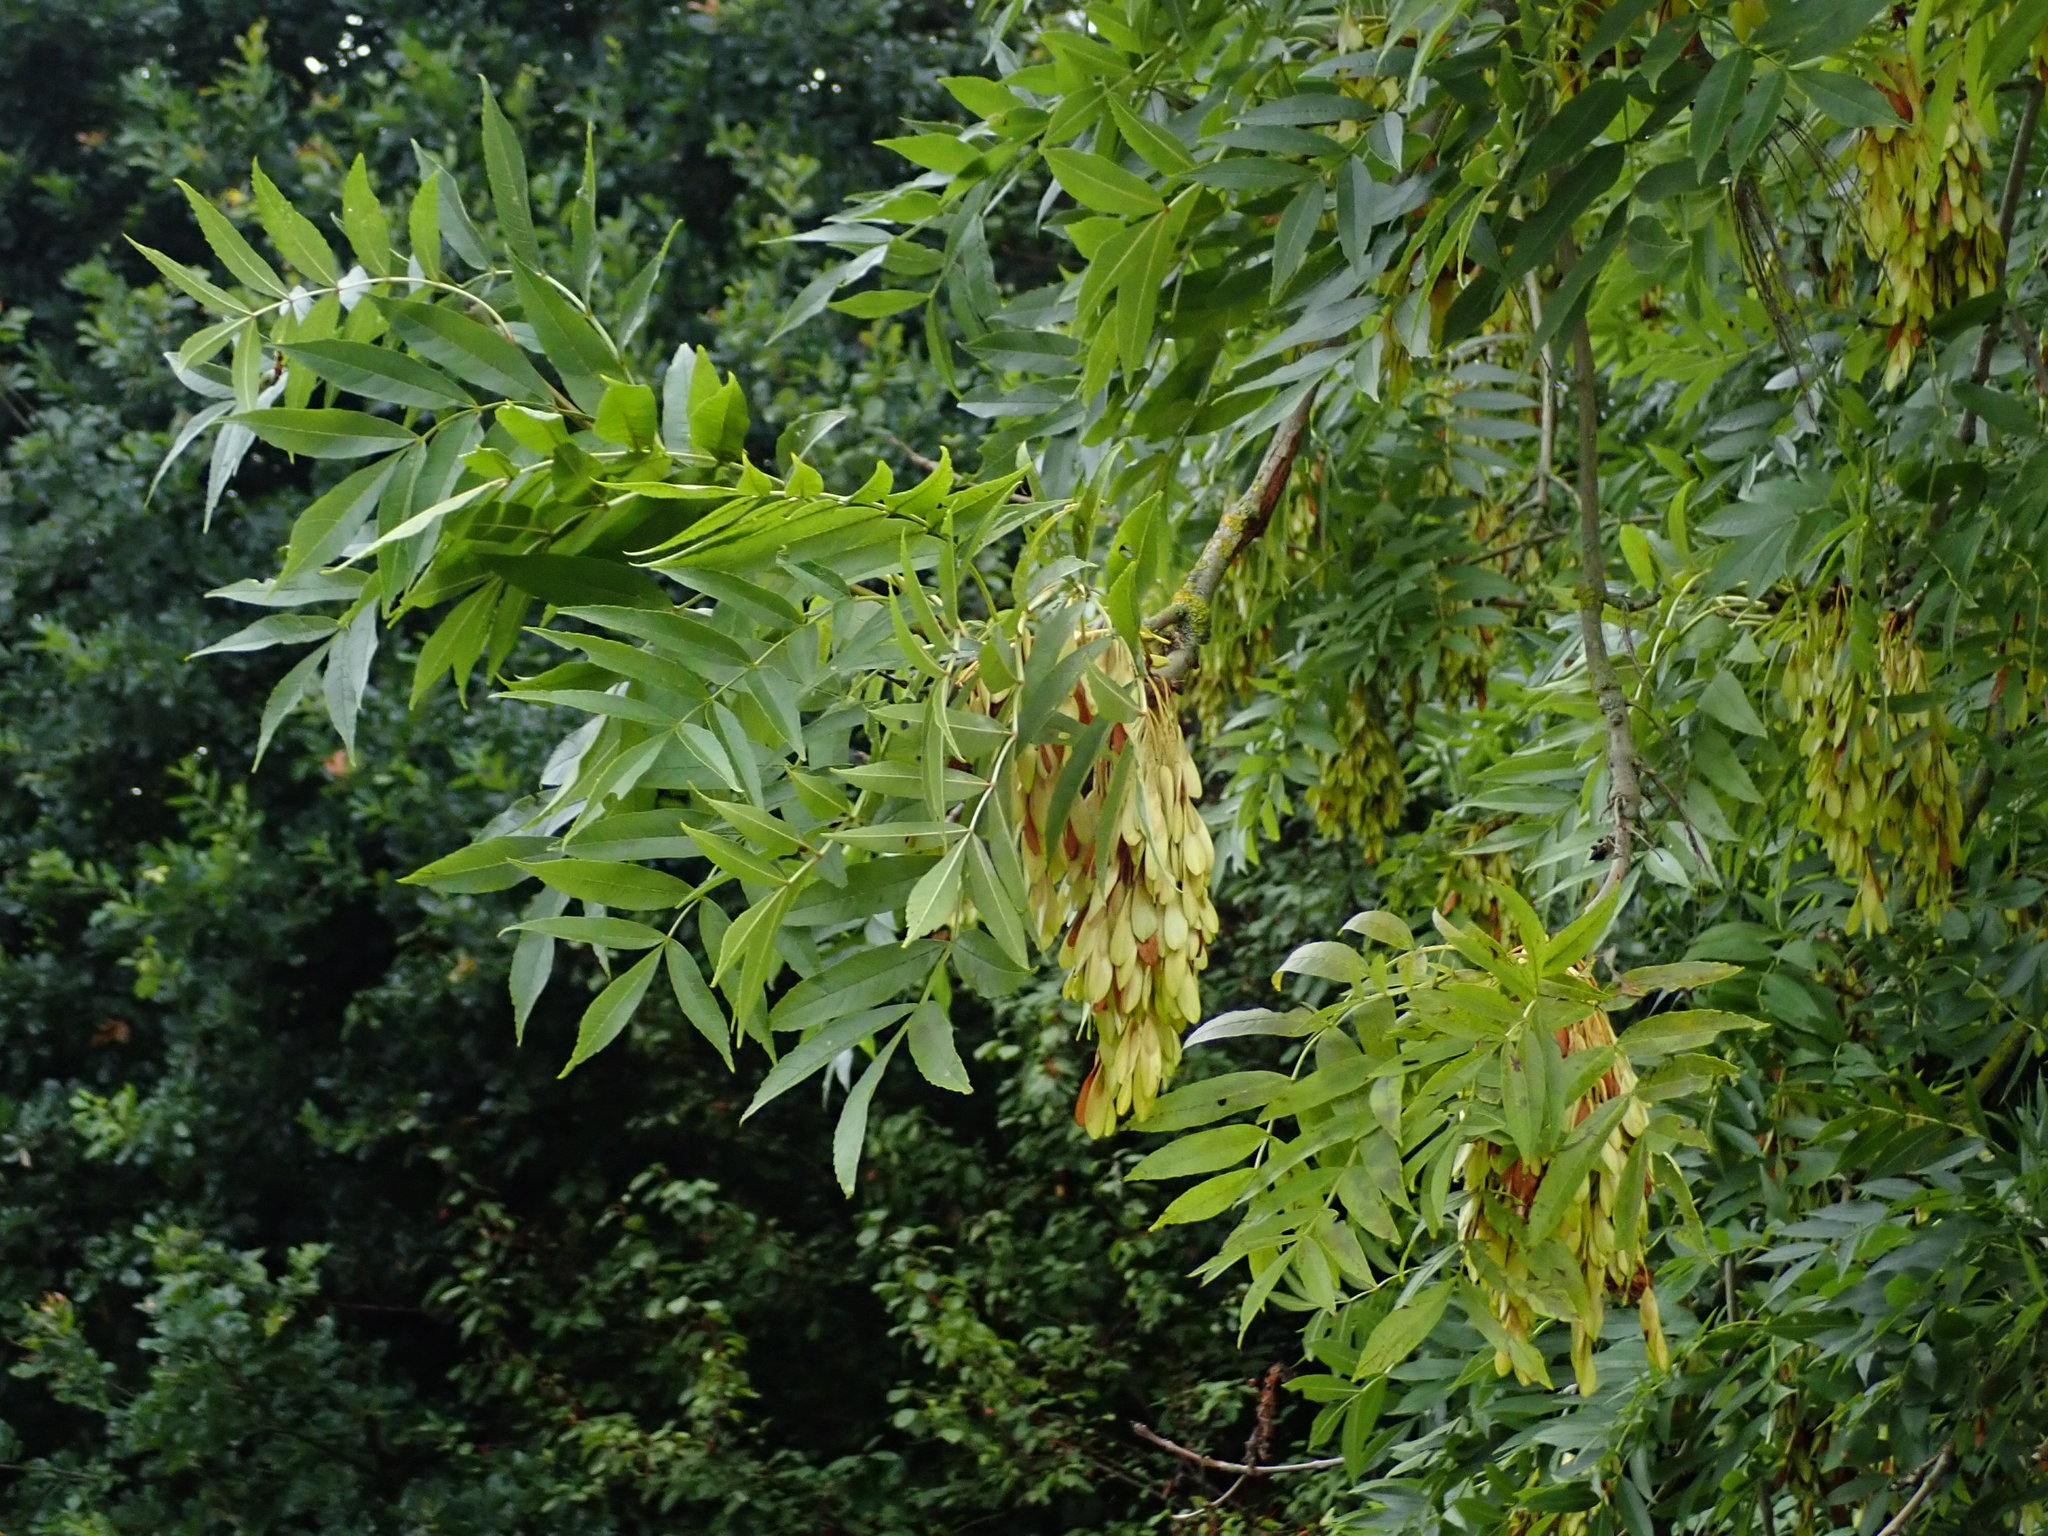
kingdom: Plantae
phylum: Tracheophyta
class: Magnoliopsida
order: Lamiales
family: Oleaceae
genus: Fraxinus
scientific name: Fraxinus excelsior
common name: European ash
